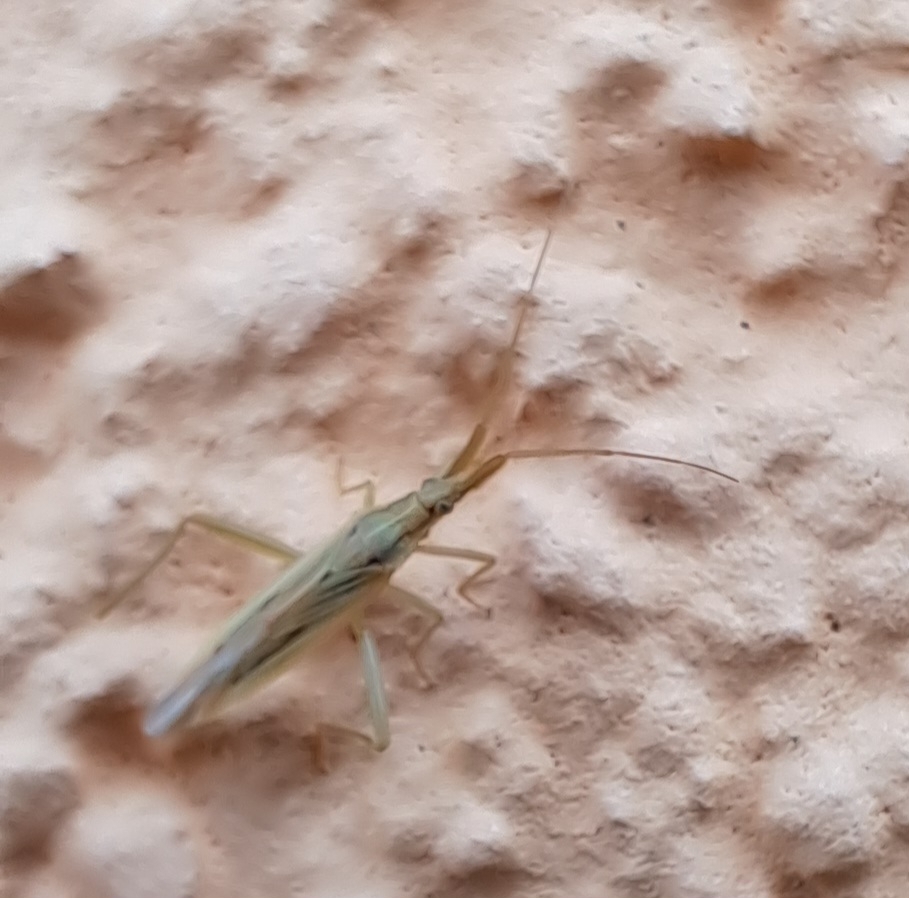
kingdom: Animalia
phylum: Arthropoda
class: Insecta
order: Hemiptera
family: Miridae
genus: Stenodema
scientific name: Stenodema laevigata
